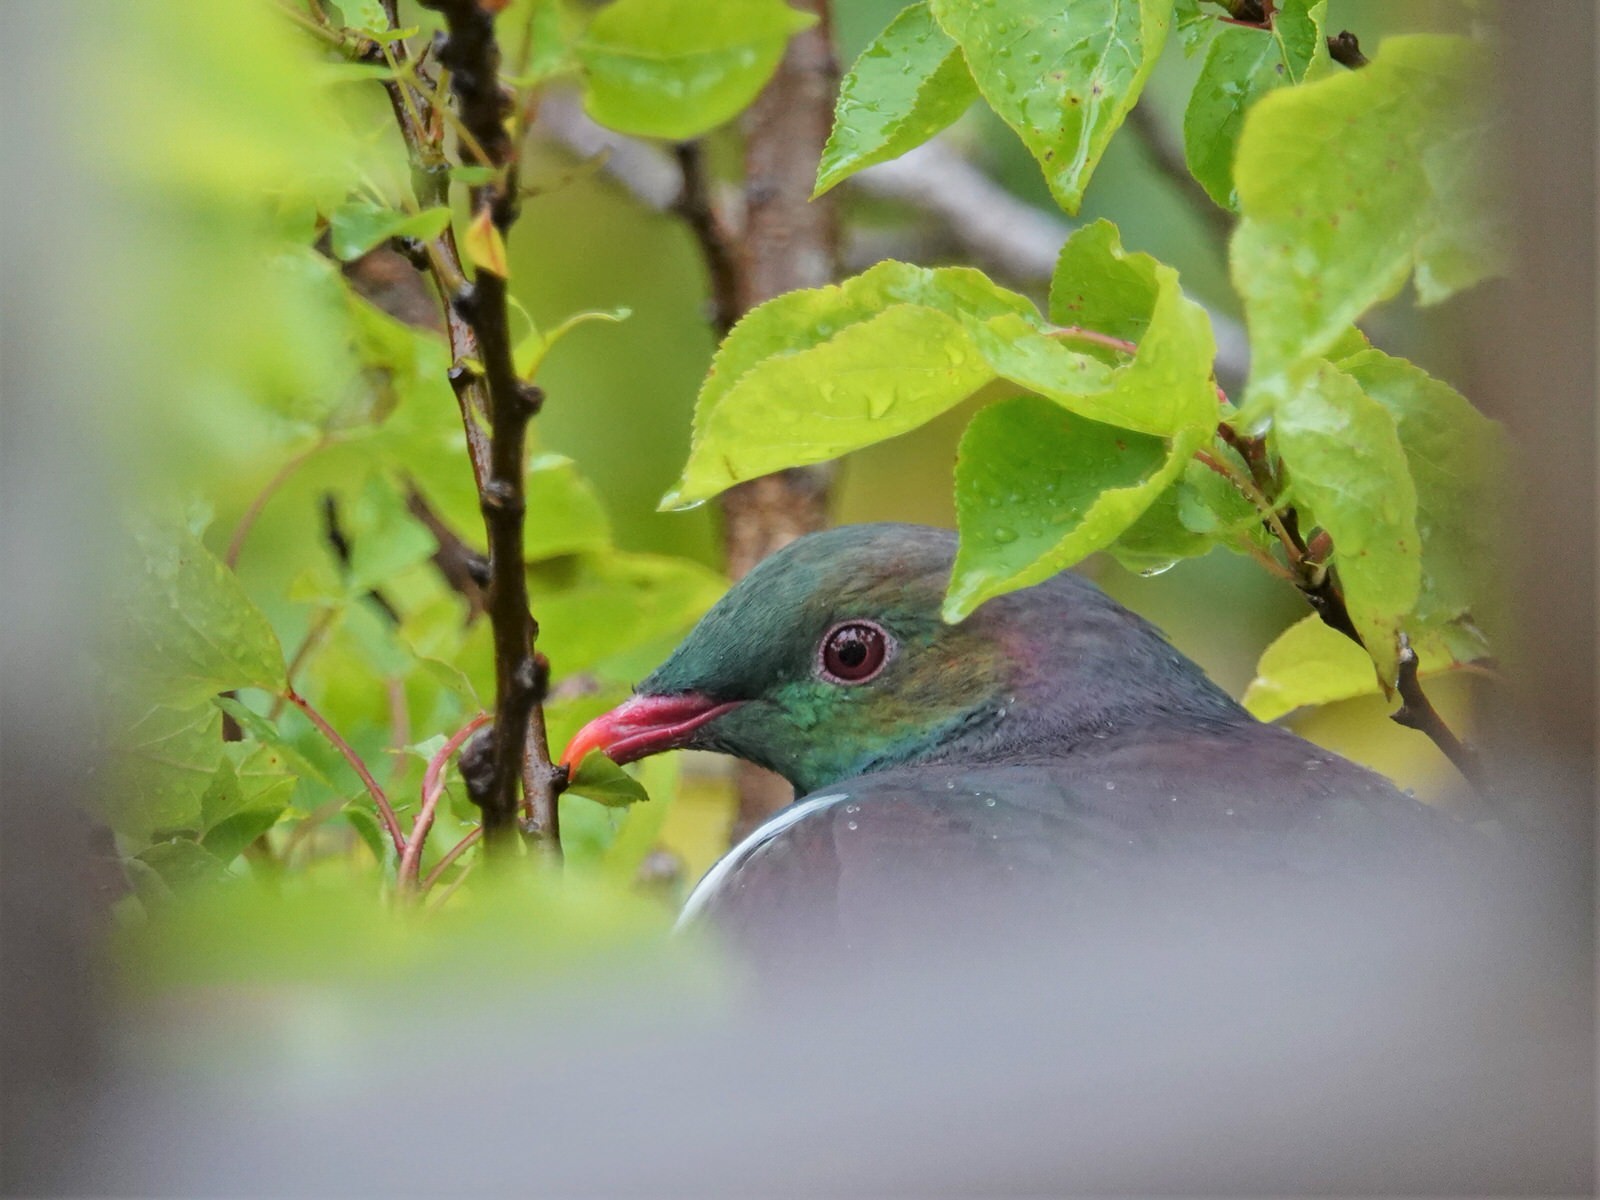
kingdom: Animalia
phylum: Chordata
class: Aves
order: Columbiformes
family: Columbidae
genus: Hemiphaga
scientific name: Hemiphaga novaeseelandiae
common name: New zealand pigeon
